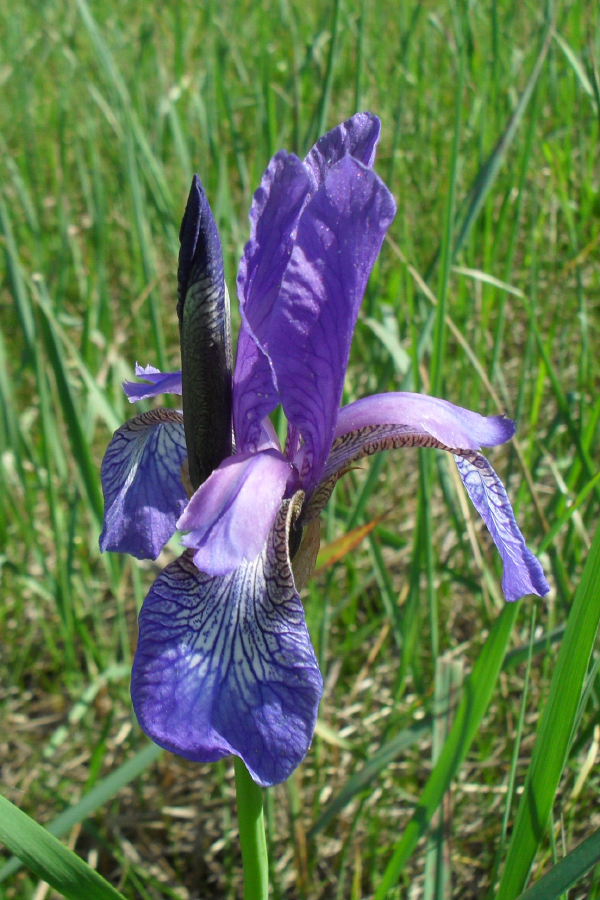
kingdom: Plantae
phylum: Tracheophyta
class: Liliopsida
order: Asparagales
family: Iridaceae
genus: Iris
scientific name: Iris sibirica
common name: Siberian iris
